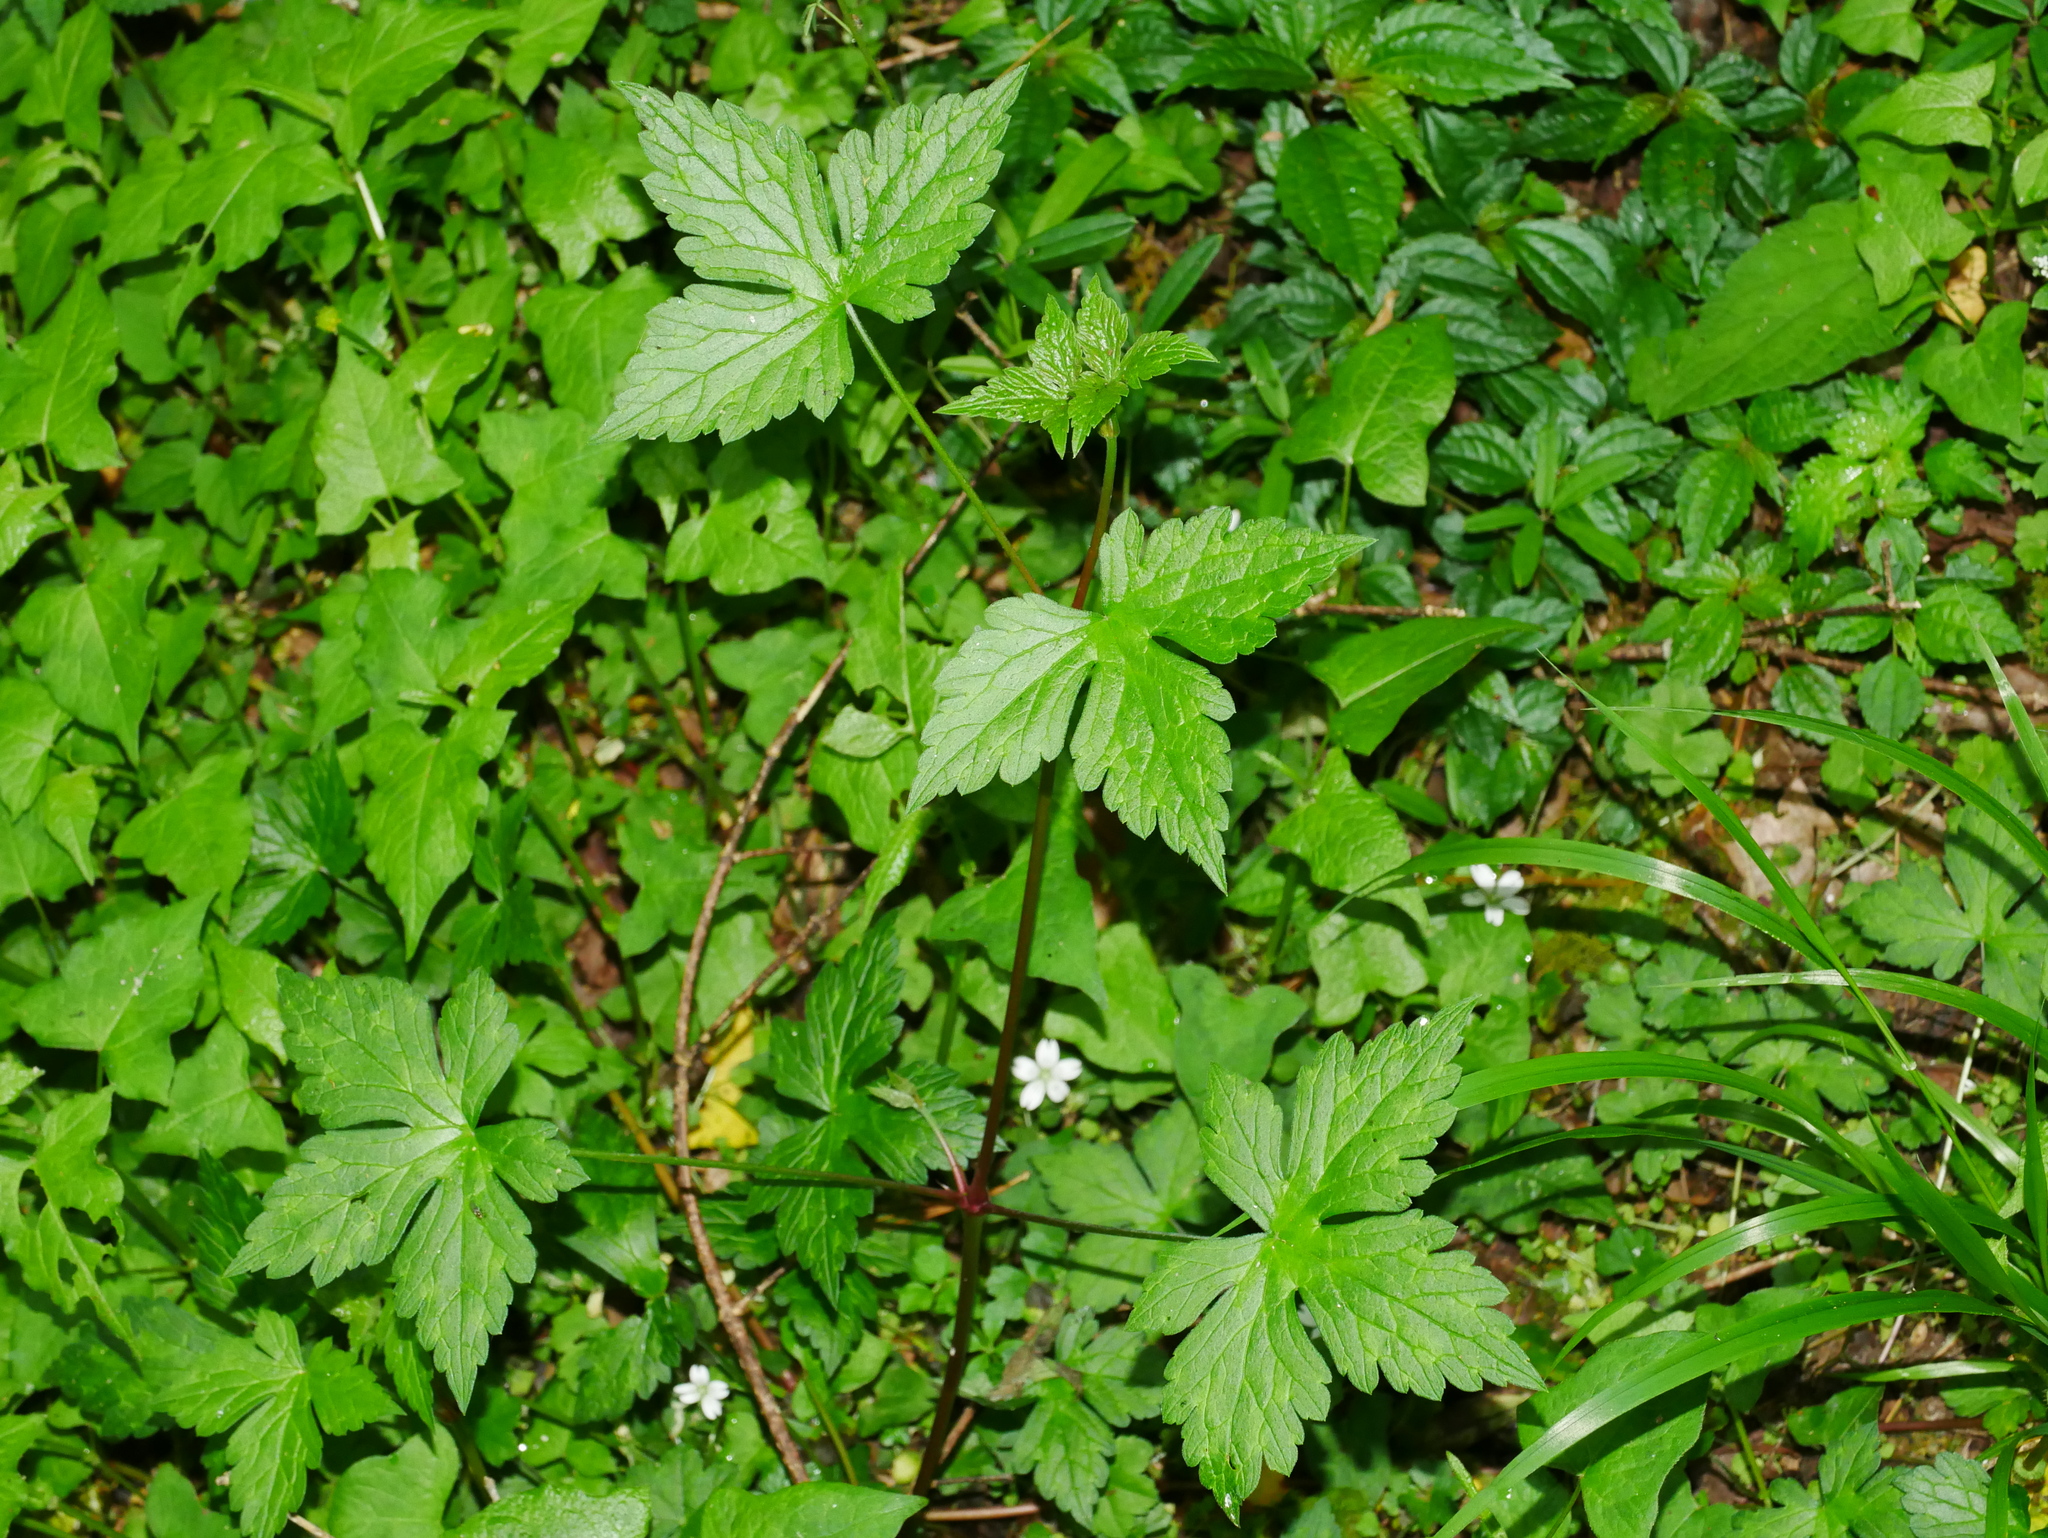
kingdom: Plantae
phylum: Tracheophyta
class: Magnoliopsida
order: Geraniales
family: Geraniaceae
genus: Geranium
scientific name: Geranium wilfordii
